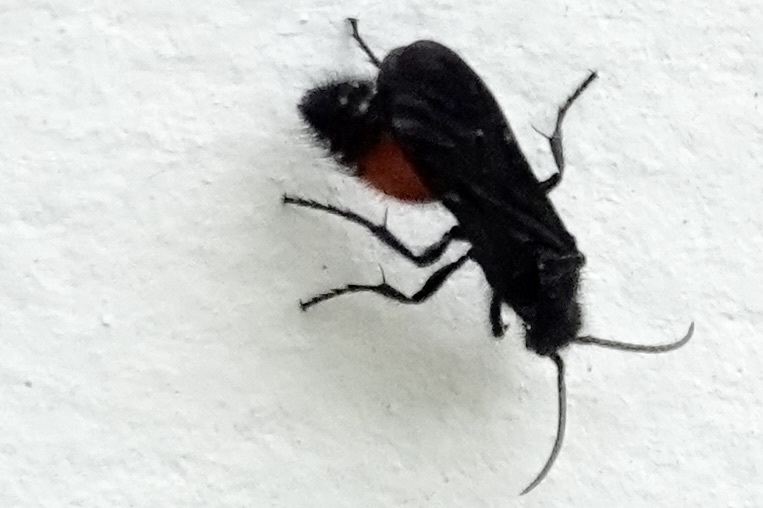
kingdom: Animalia
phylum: Arthropoda
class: Insecta
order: Hymenoptera
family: Mutillidae
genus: Dasymutilla
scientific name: Dasymutilla
